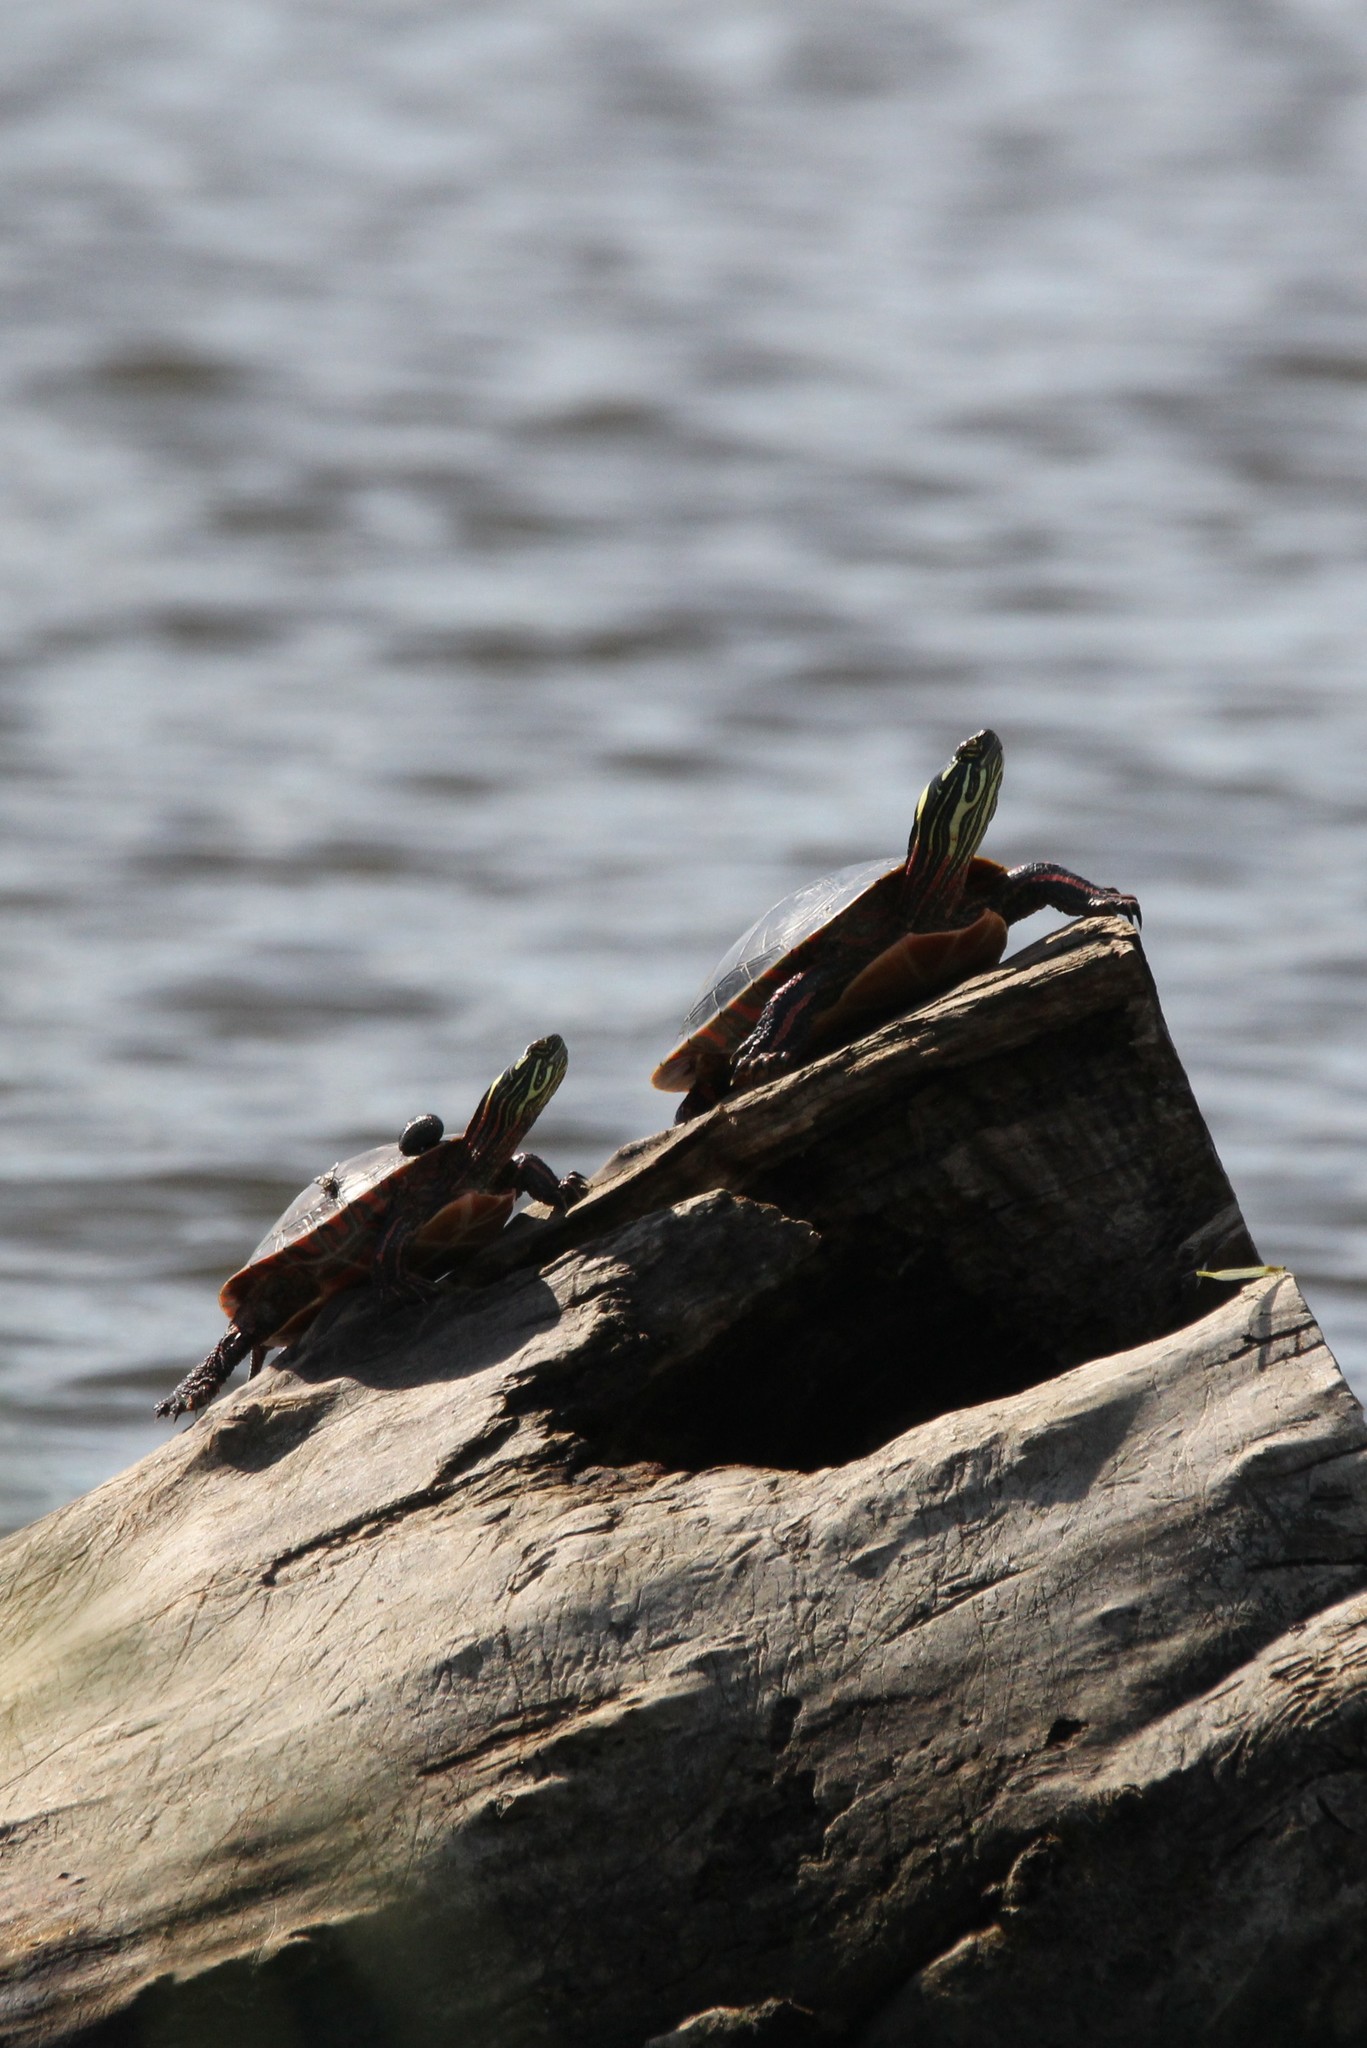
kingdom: Animalia
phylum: Chordata
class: Testudines
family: Emydidae
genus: Chrysemys
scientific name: Chrysemys picta
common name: Painted turtle
